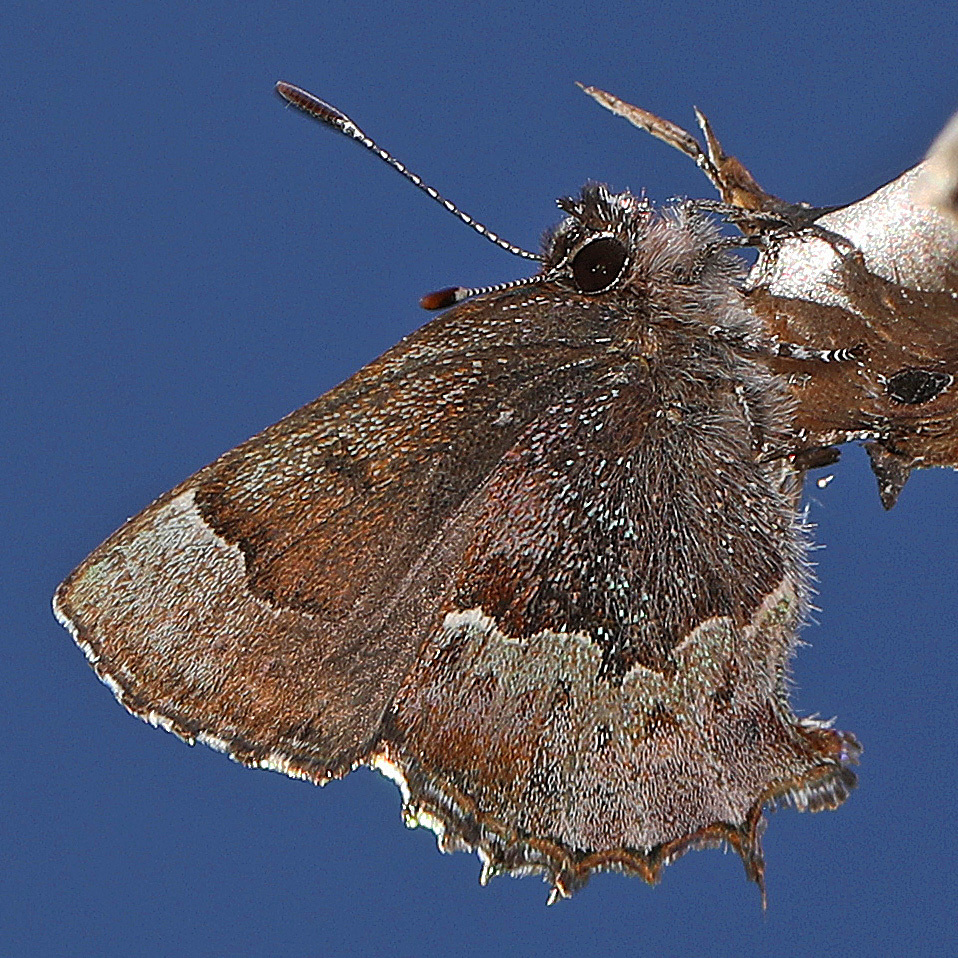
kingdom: Animalia
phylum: Arthropoda
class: Insecta
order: Lepidoptera
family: Lycaenidae
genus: Incisalia
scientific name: Incisalia henrici
